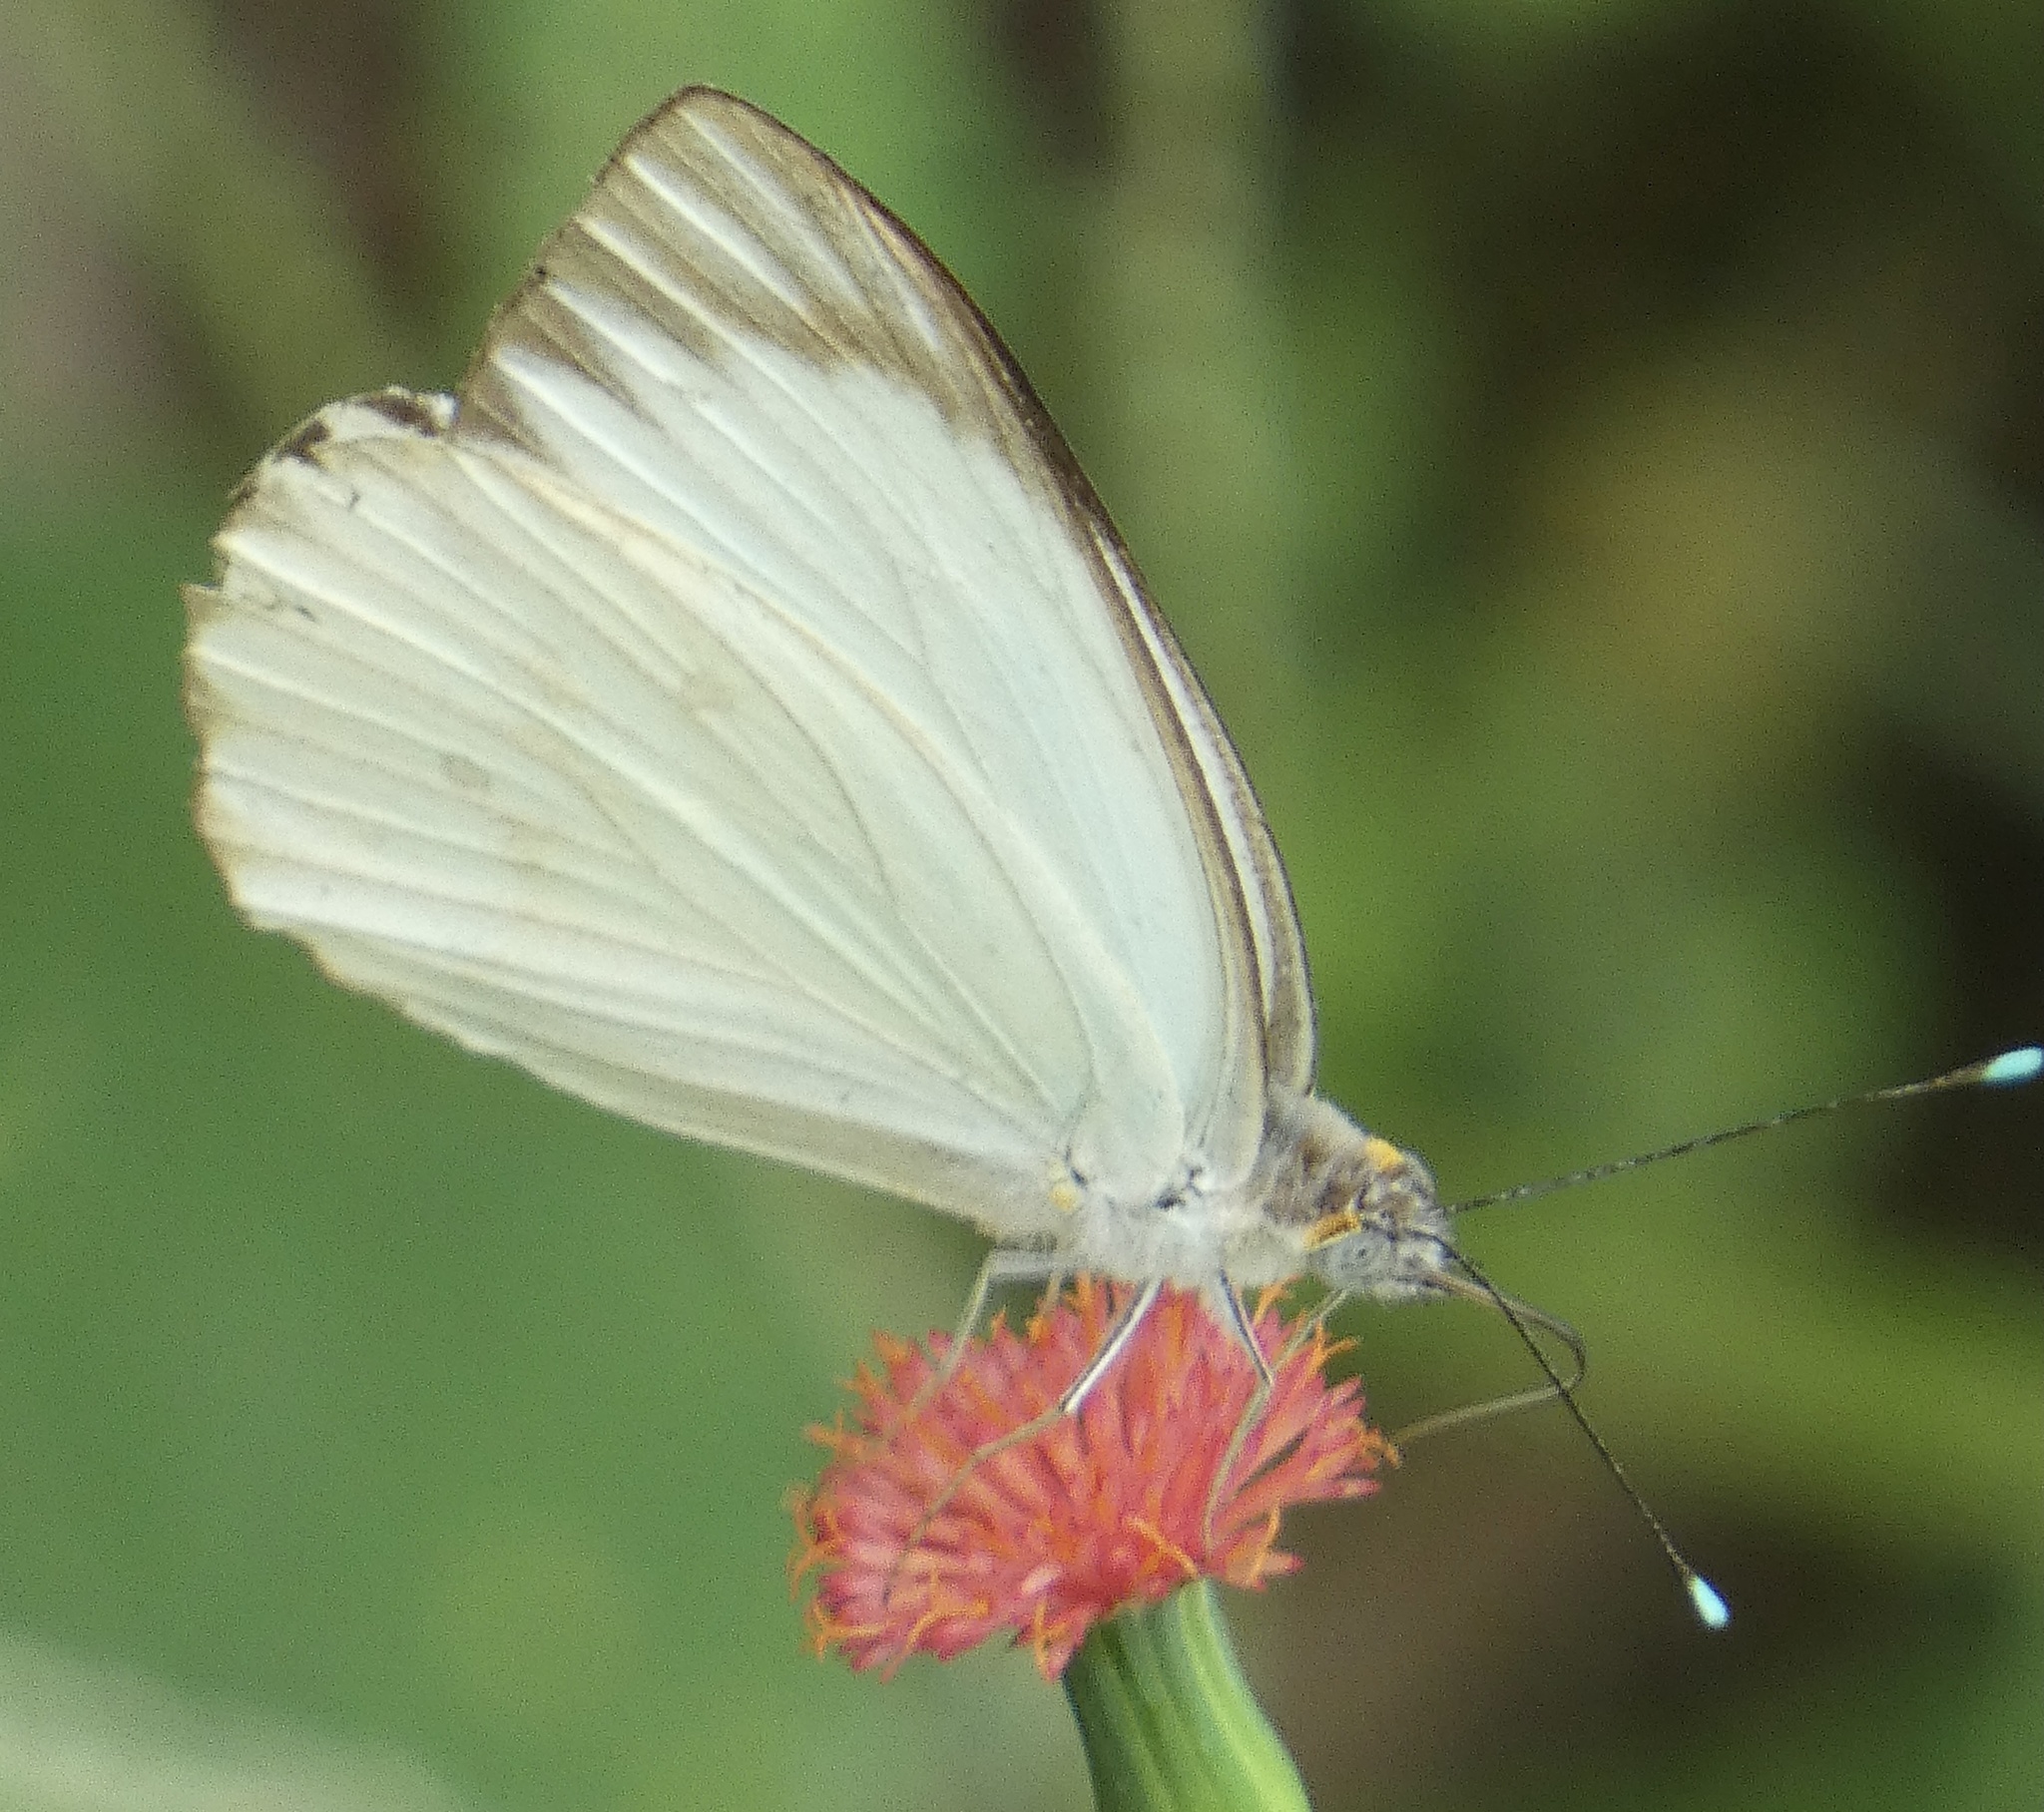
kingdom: Animalia
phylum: Arthropoda
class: Insecta
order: Lepidoptera
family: Pieridae
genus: Ascia
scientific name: Ascia monuste
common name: Great southern white
